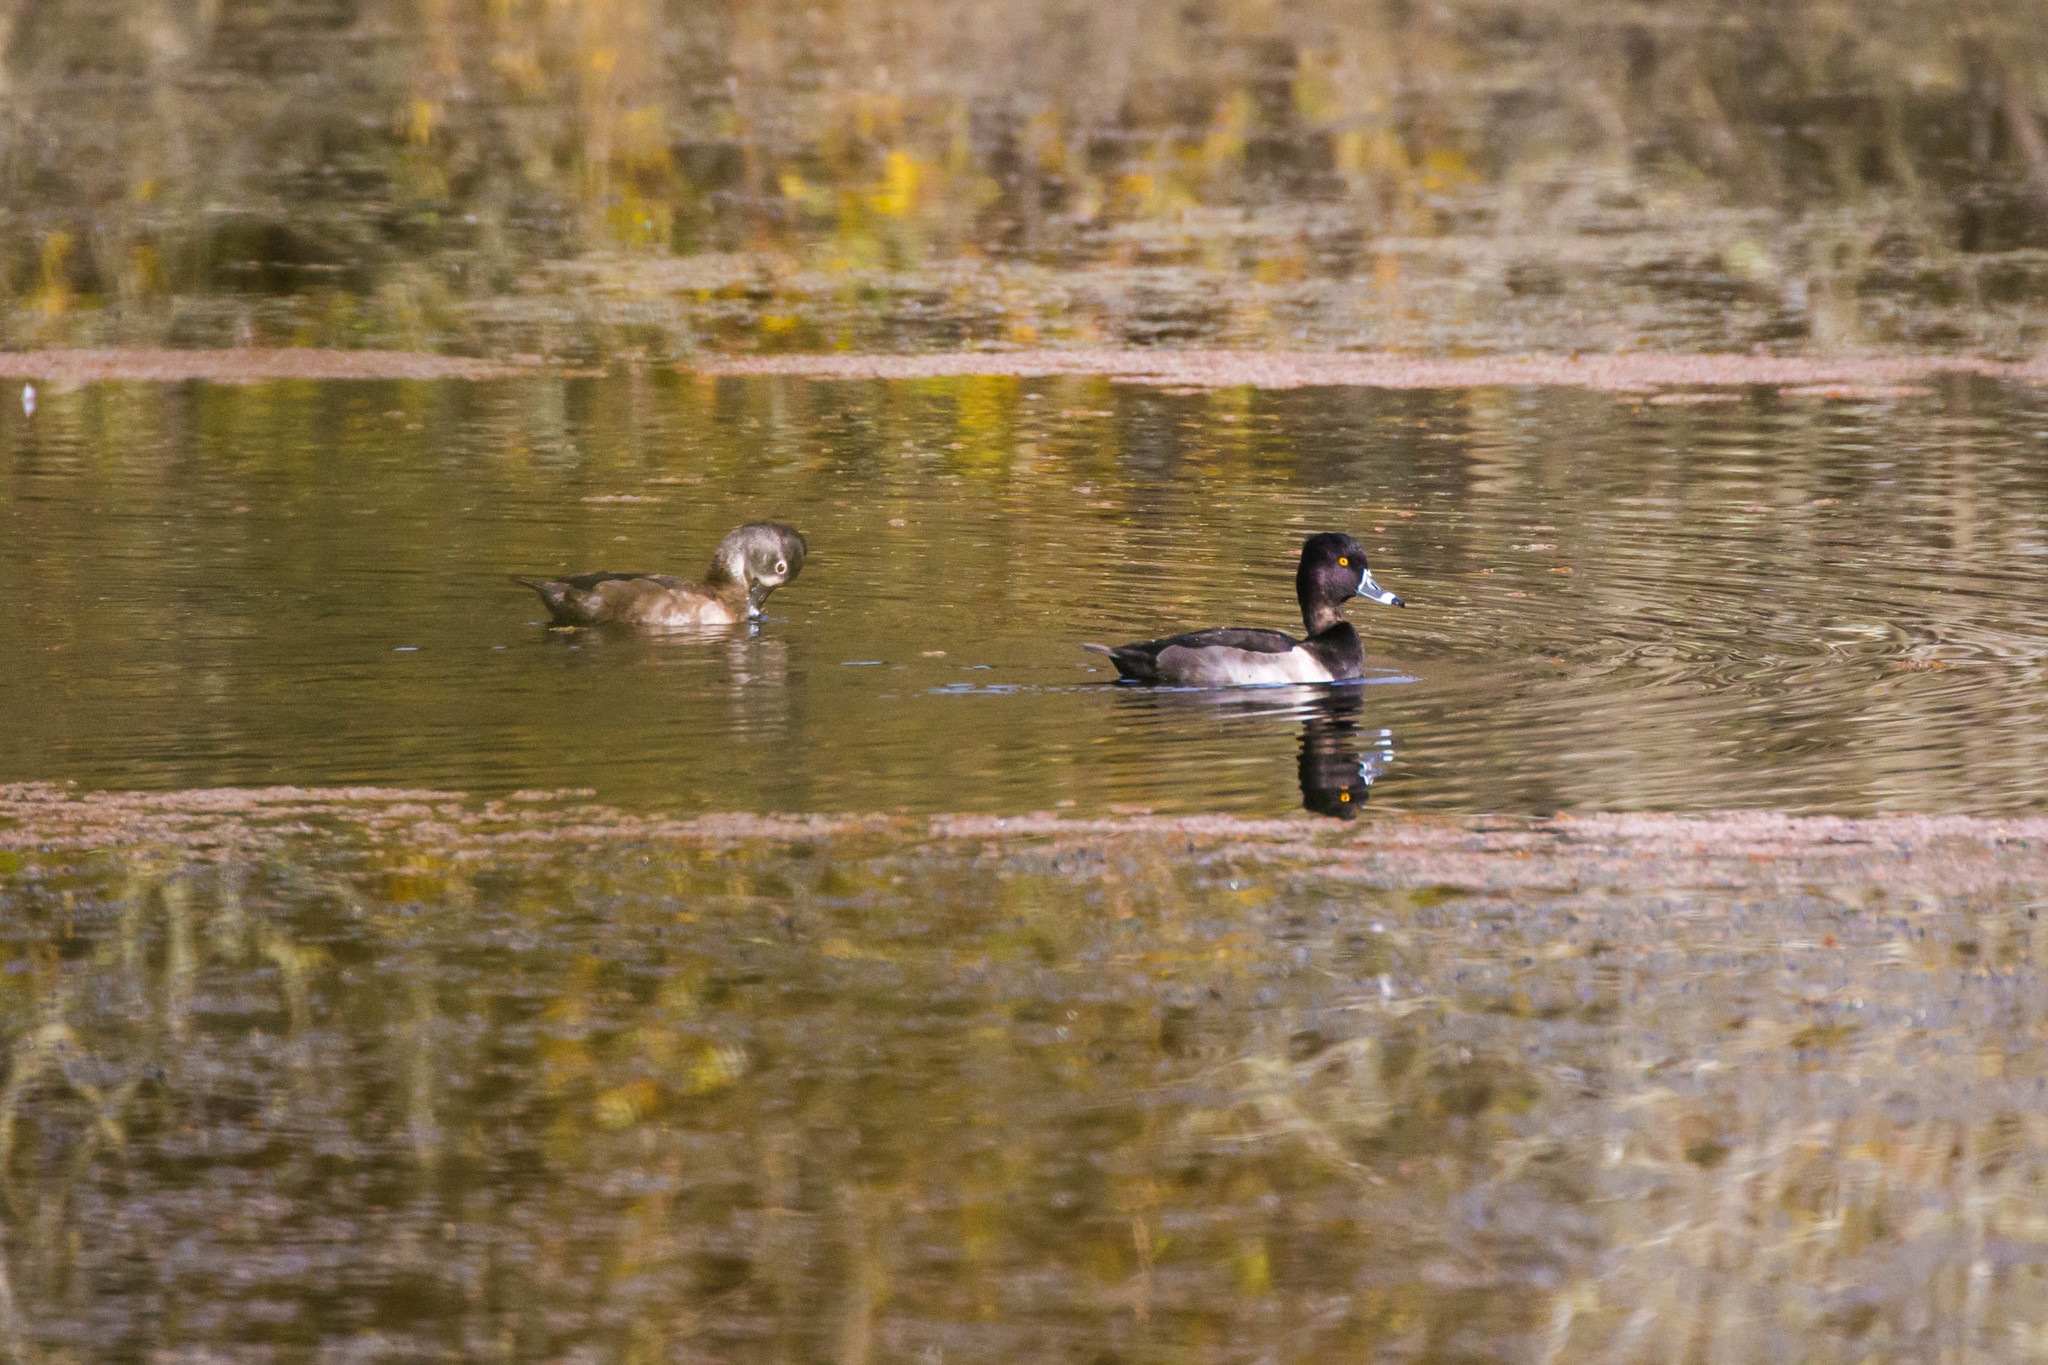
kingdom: Animalia
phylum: Chordata
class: Aves
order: Anseriformes
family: Anatidae
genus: Aythya
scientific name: Aythya collaris
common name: Ring-necked duck
